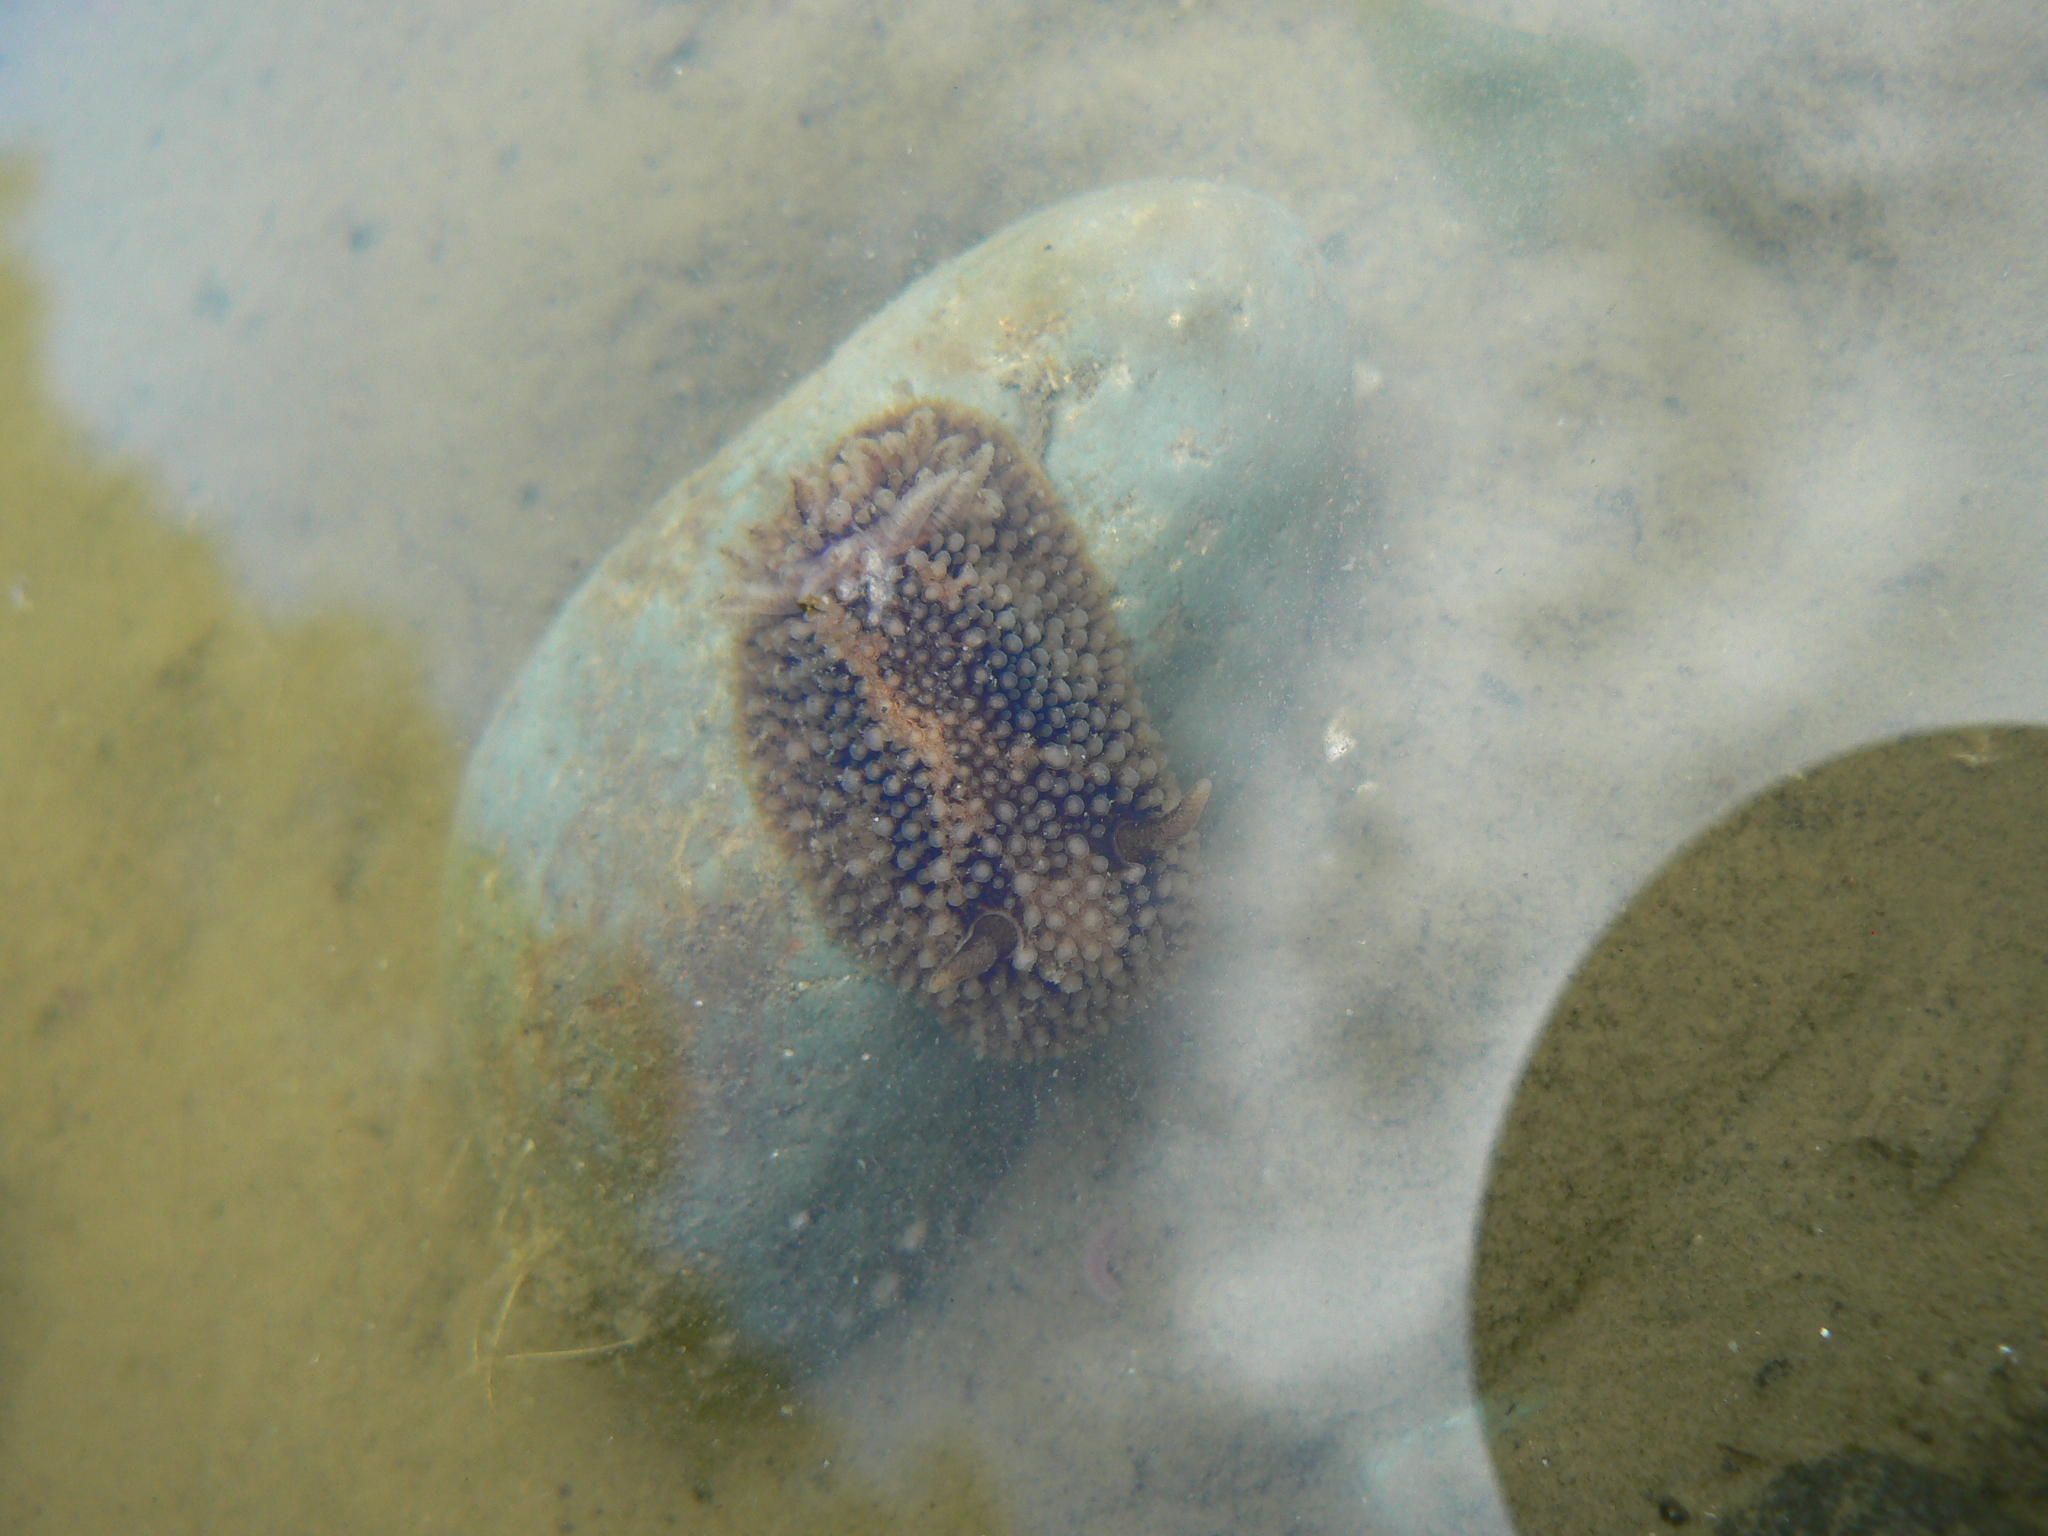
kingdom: Animalia
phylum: Mollusca
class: Gastropoda
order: Nudibranchia
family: Onchidorididae
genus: Onchidoris
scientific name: Onchidoris bilamellata
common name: Barnacle-eating onchidoris
